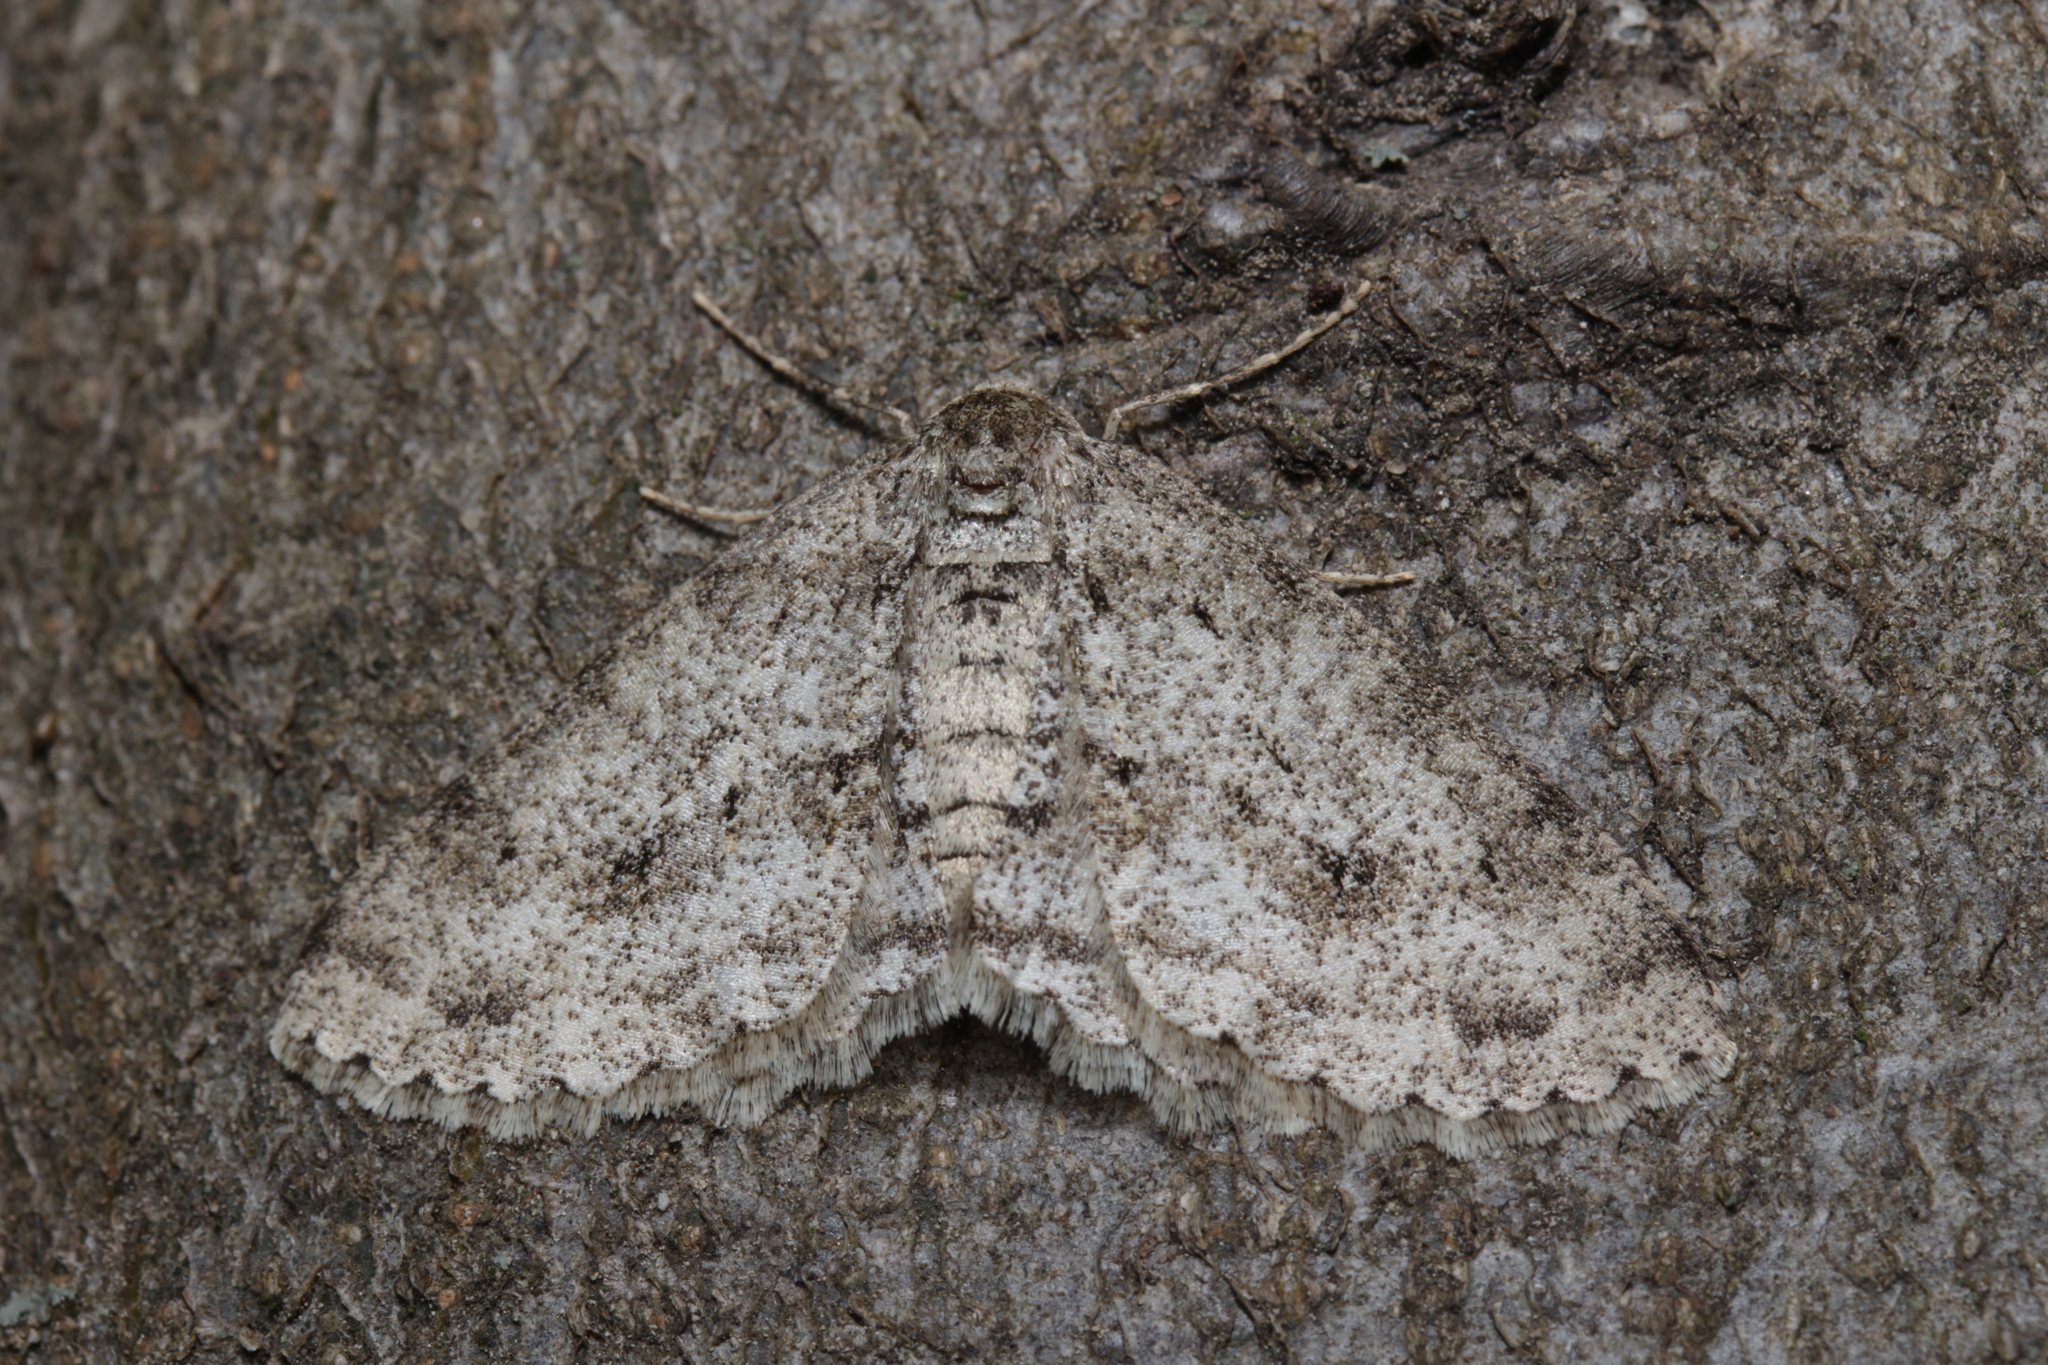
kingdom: Animalia
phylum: Arthropoda
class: Insecta
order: Lepidoptera
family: Geometridae
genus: Ectropis
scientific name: Ectropis crepuscularia
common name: Engrailed
